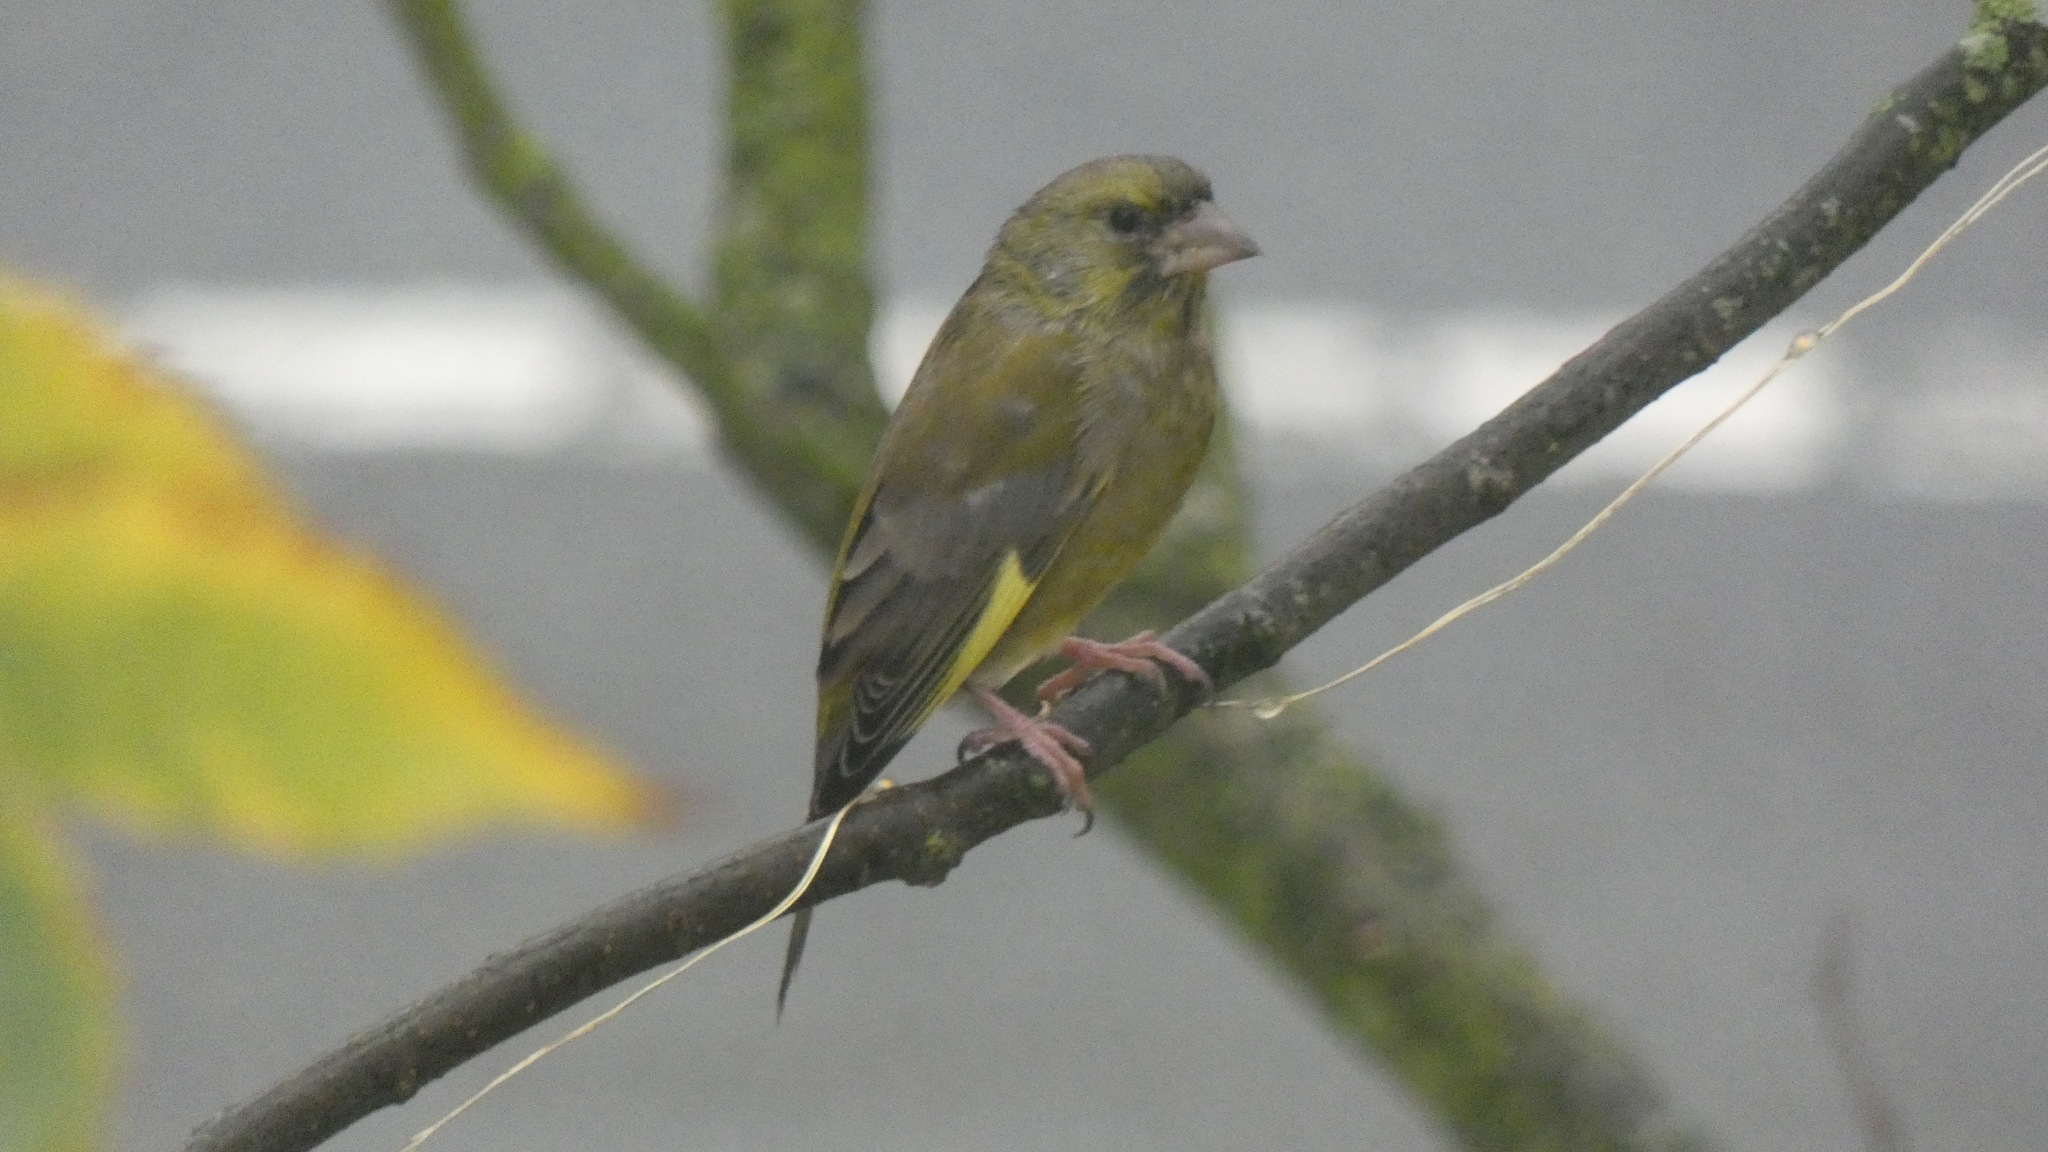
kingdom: Plantae
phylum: Tracheophyta
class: Liliopsida
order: Poales
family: Poaceae
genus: Chloris
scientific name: Chloris chloris
